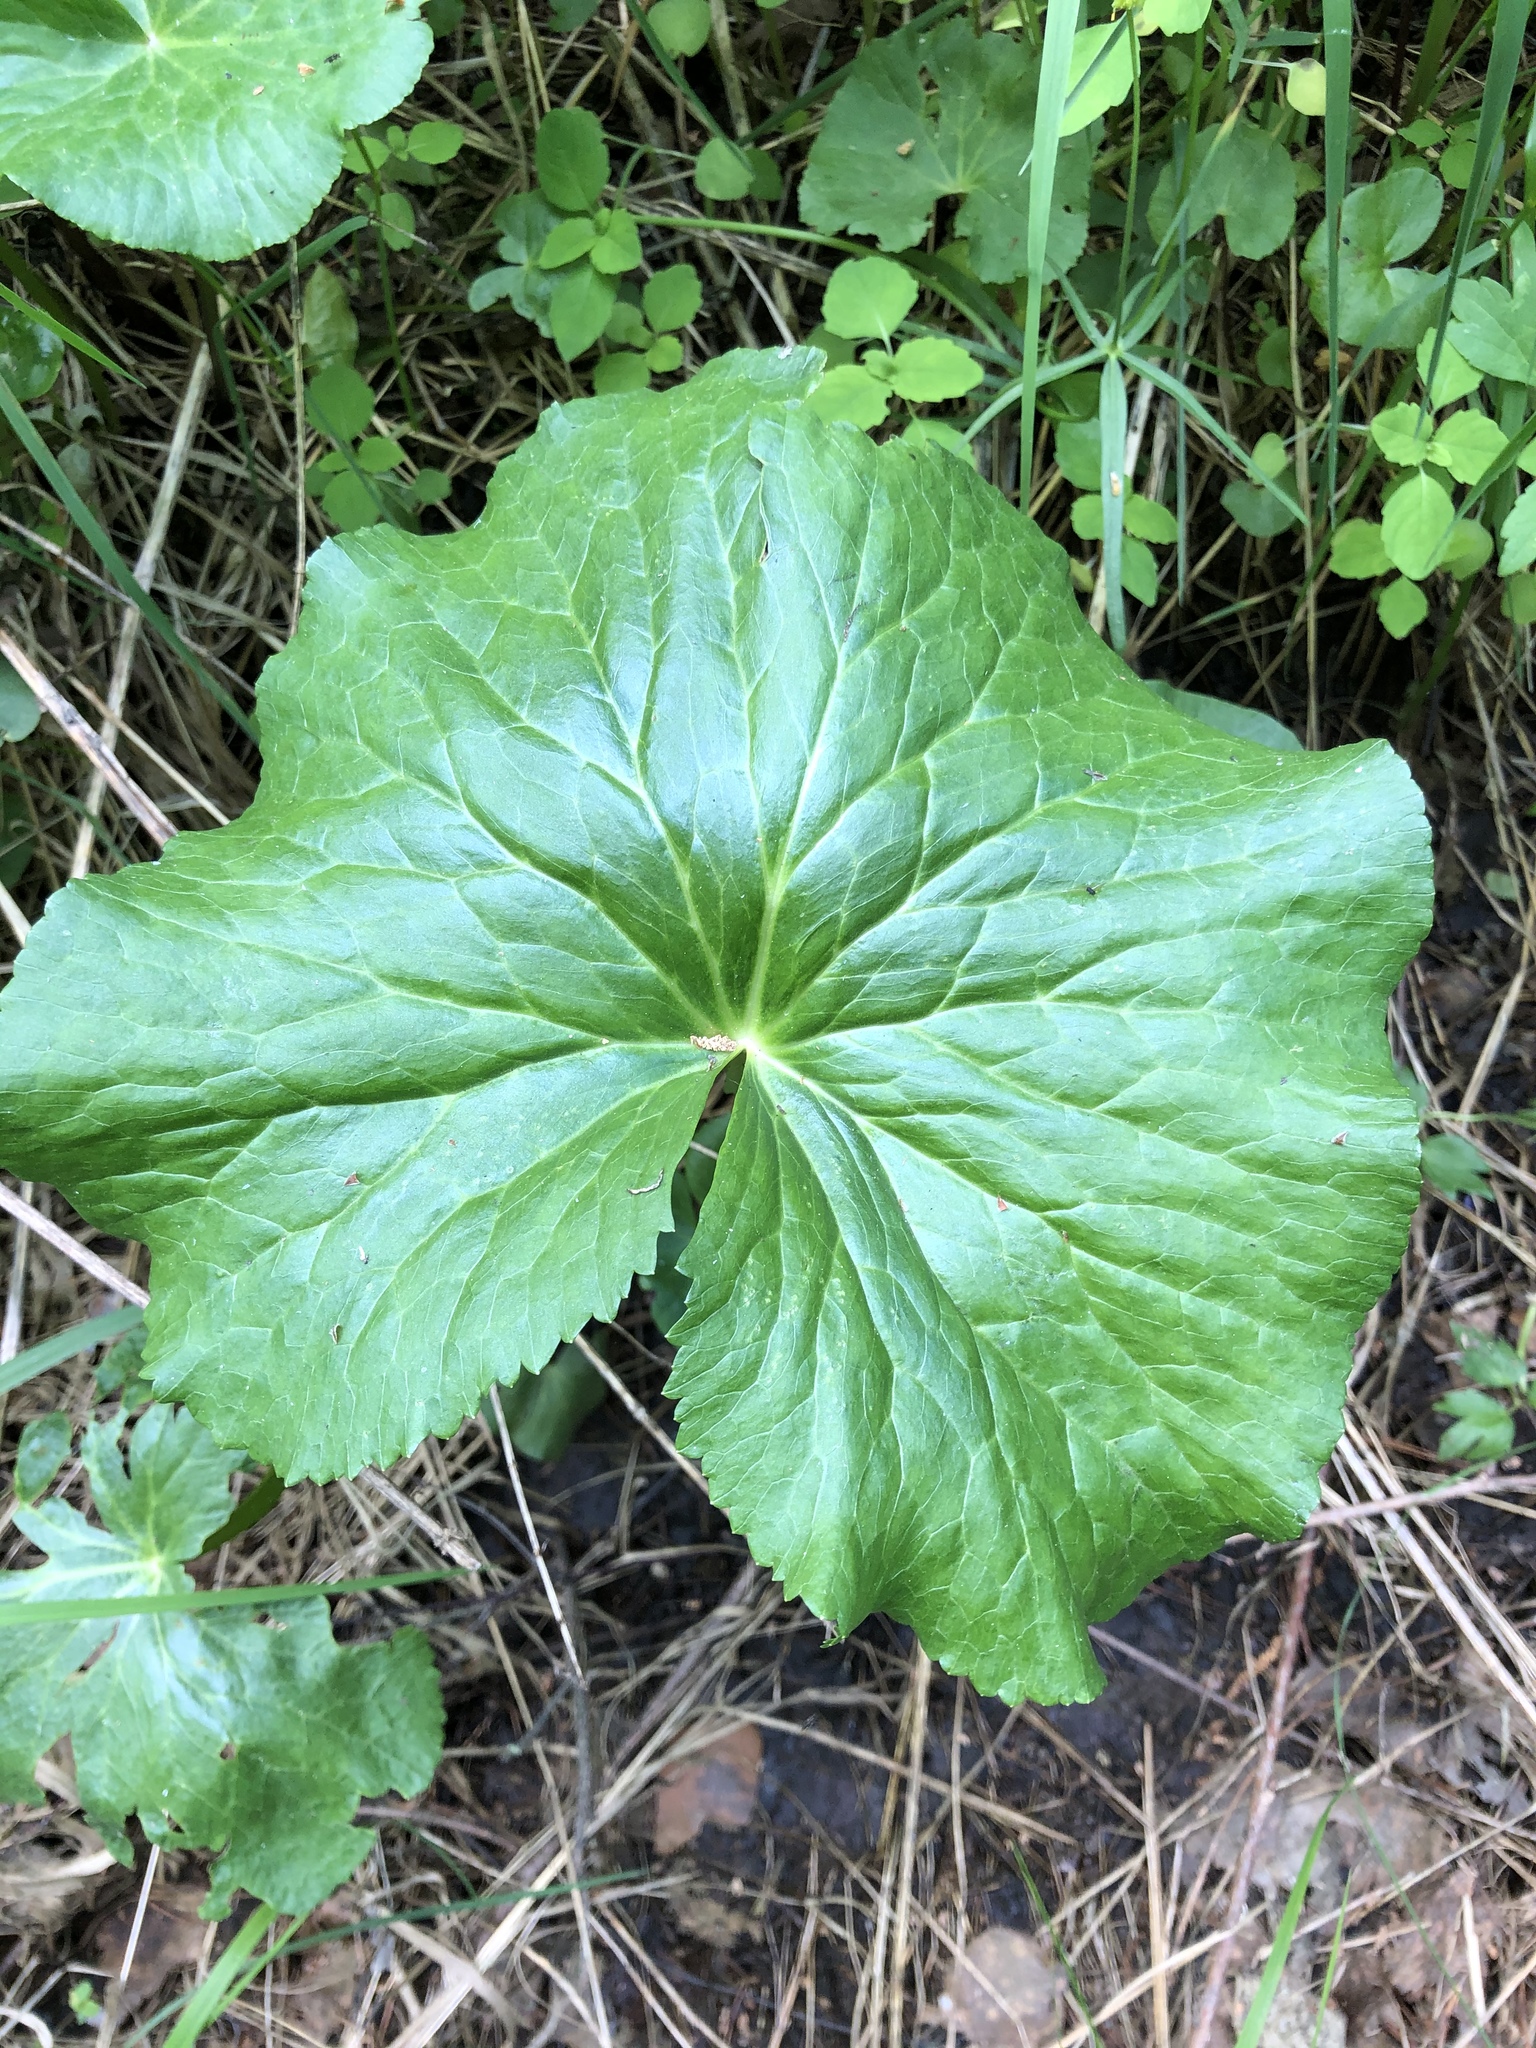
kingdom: Plantae
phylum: Tracheophyta
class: Magnoliopsida
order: Ranunculales
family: Ranunculaceae
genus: Caltha
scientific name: Caltha palustris
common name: Marsh marigold
